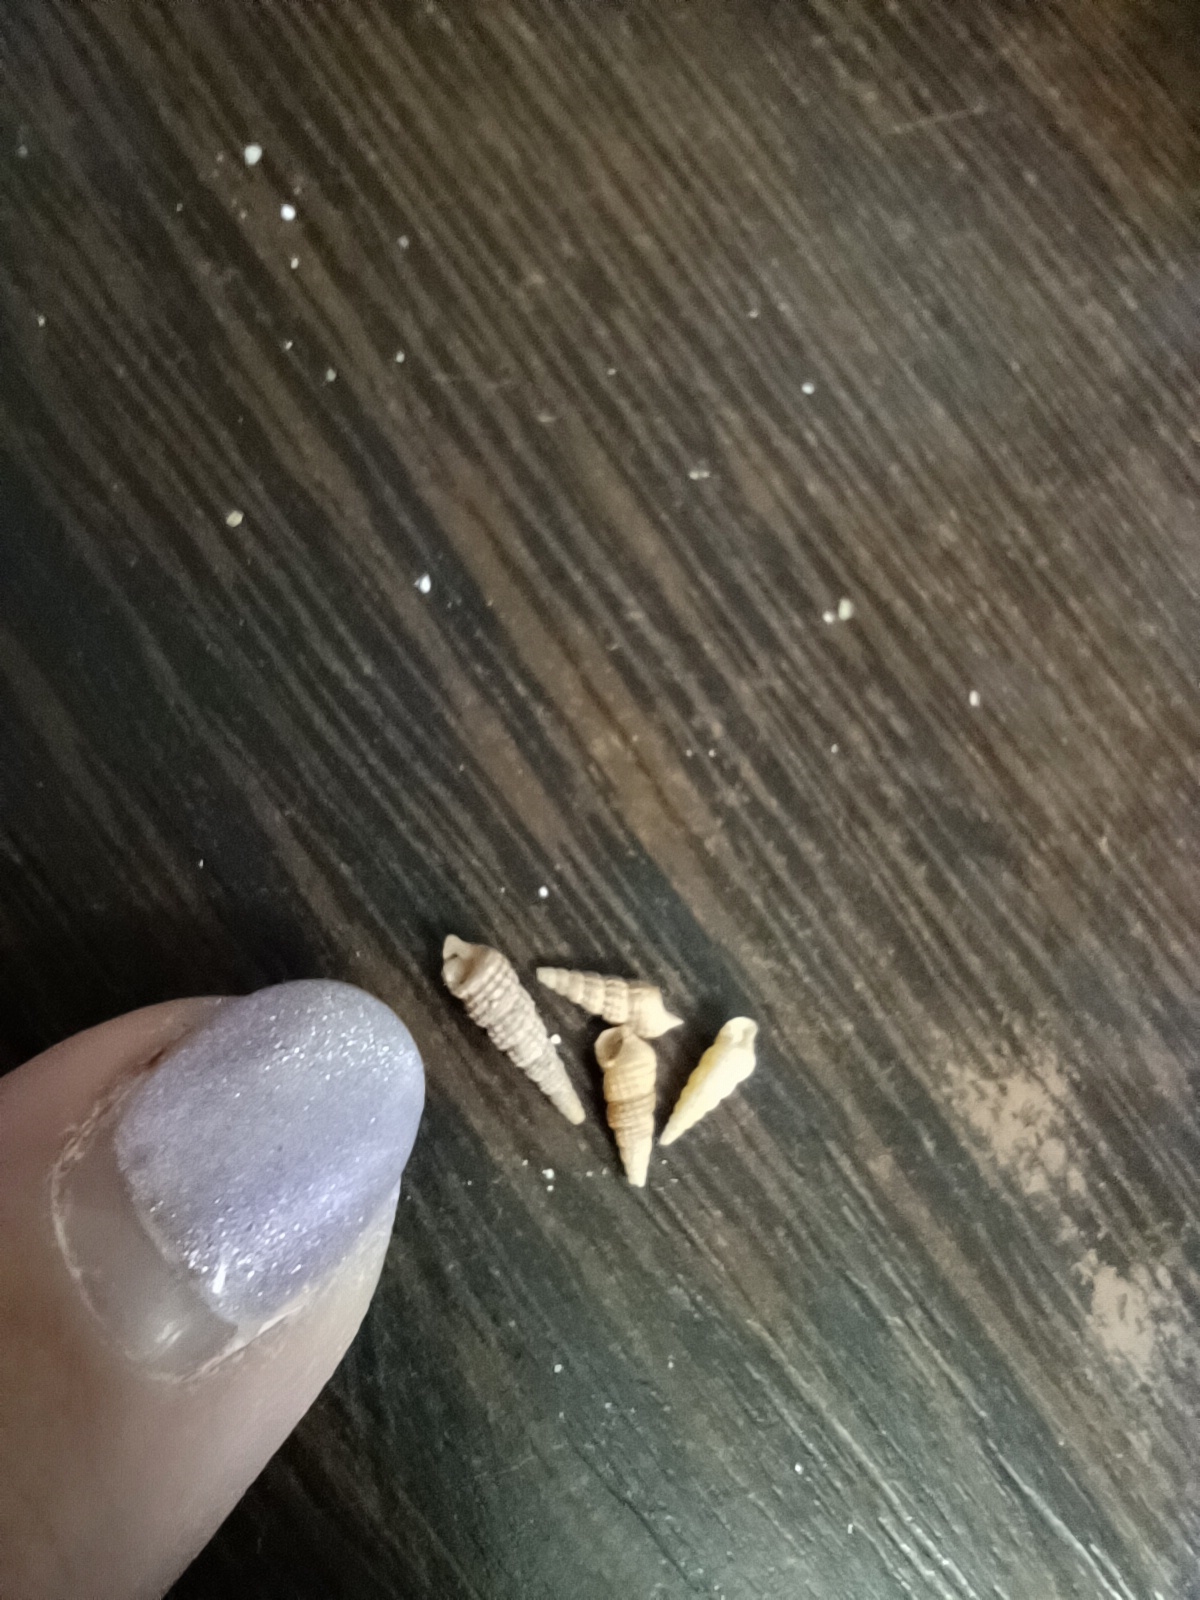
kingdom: Animalia
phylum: Mollusca
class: Gastropoda
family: Cerithiidae
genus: Bittium
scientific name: Bittium reticulatum
